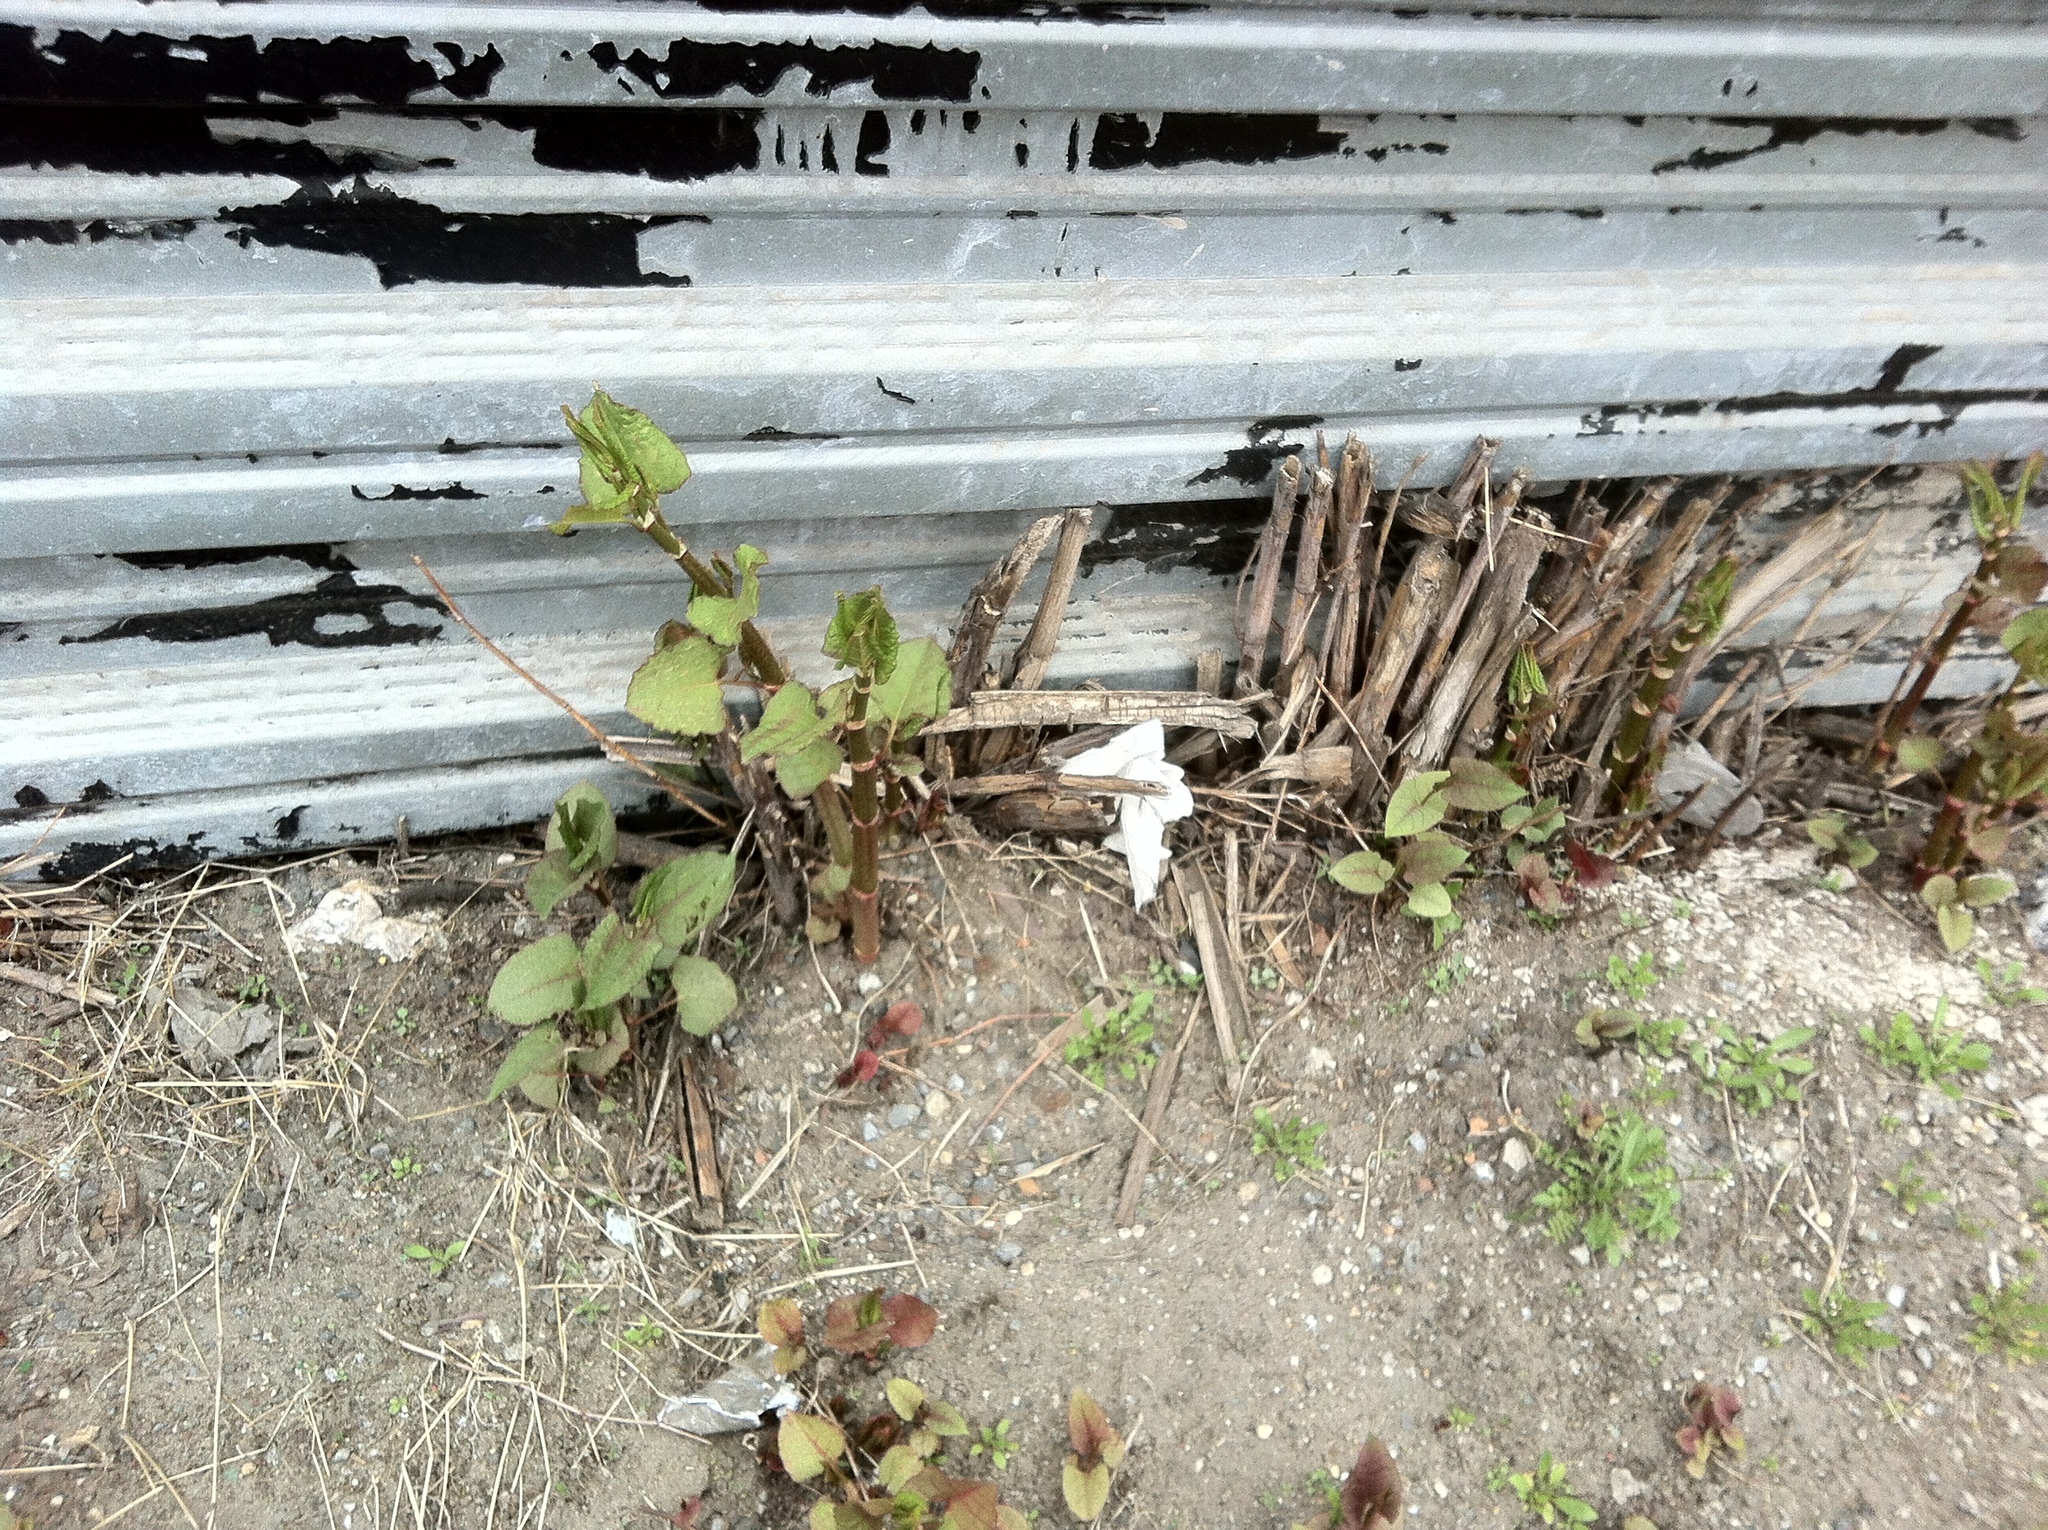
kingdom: Plantae
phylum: Tracheophyta
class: Magnoliopsida
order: Caryophyllales
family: Polygonaceae
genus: Reynoutria
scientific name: Reynoutria japonica
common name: Japanese knotweed
